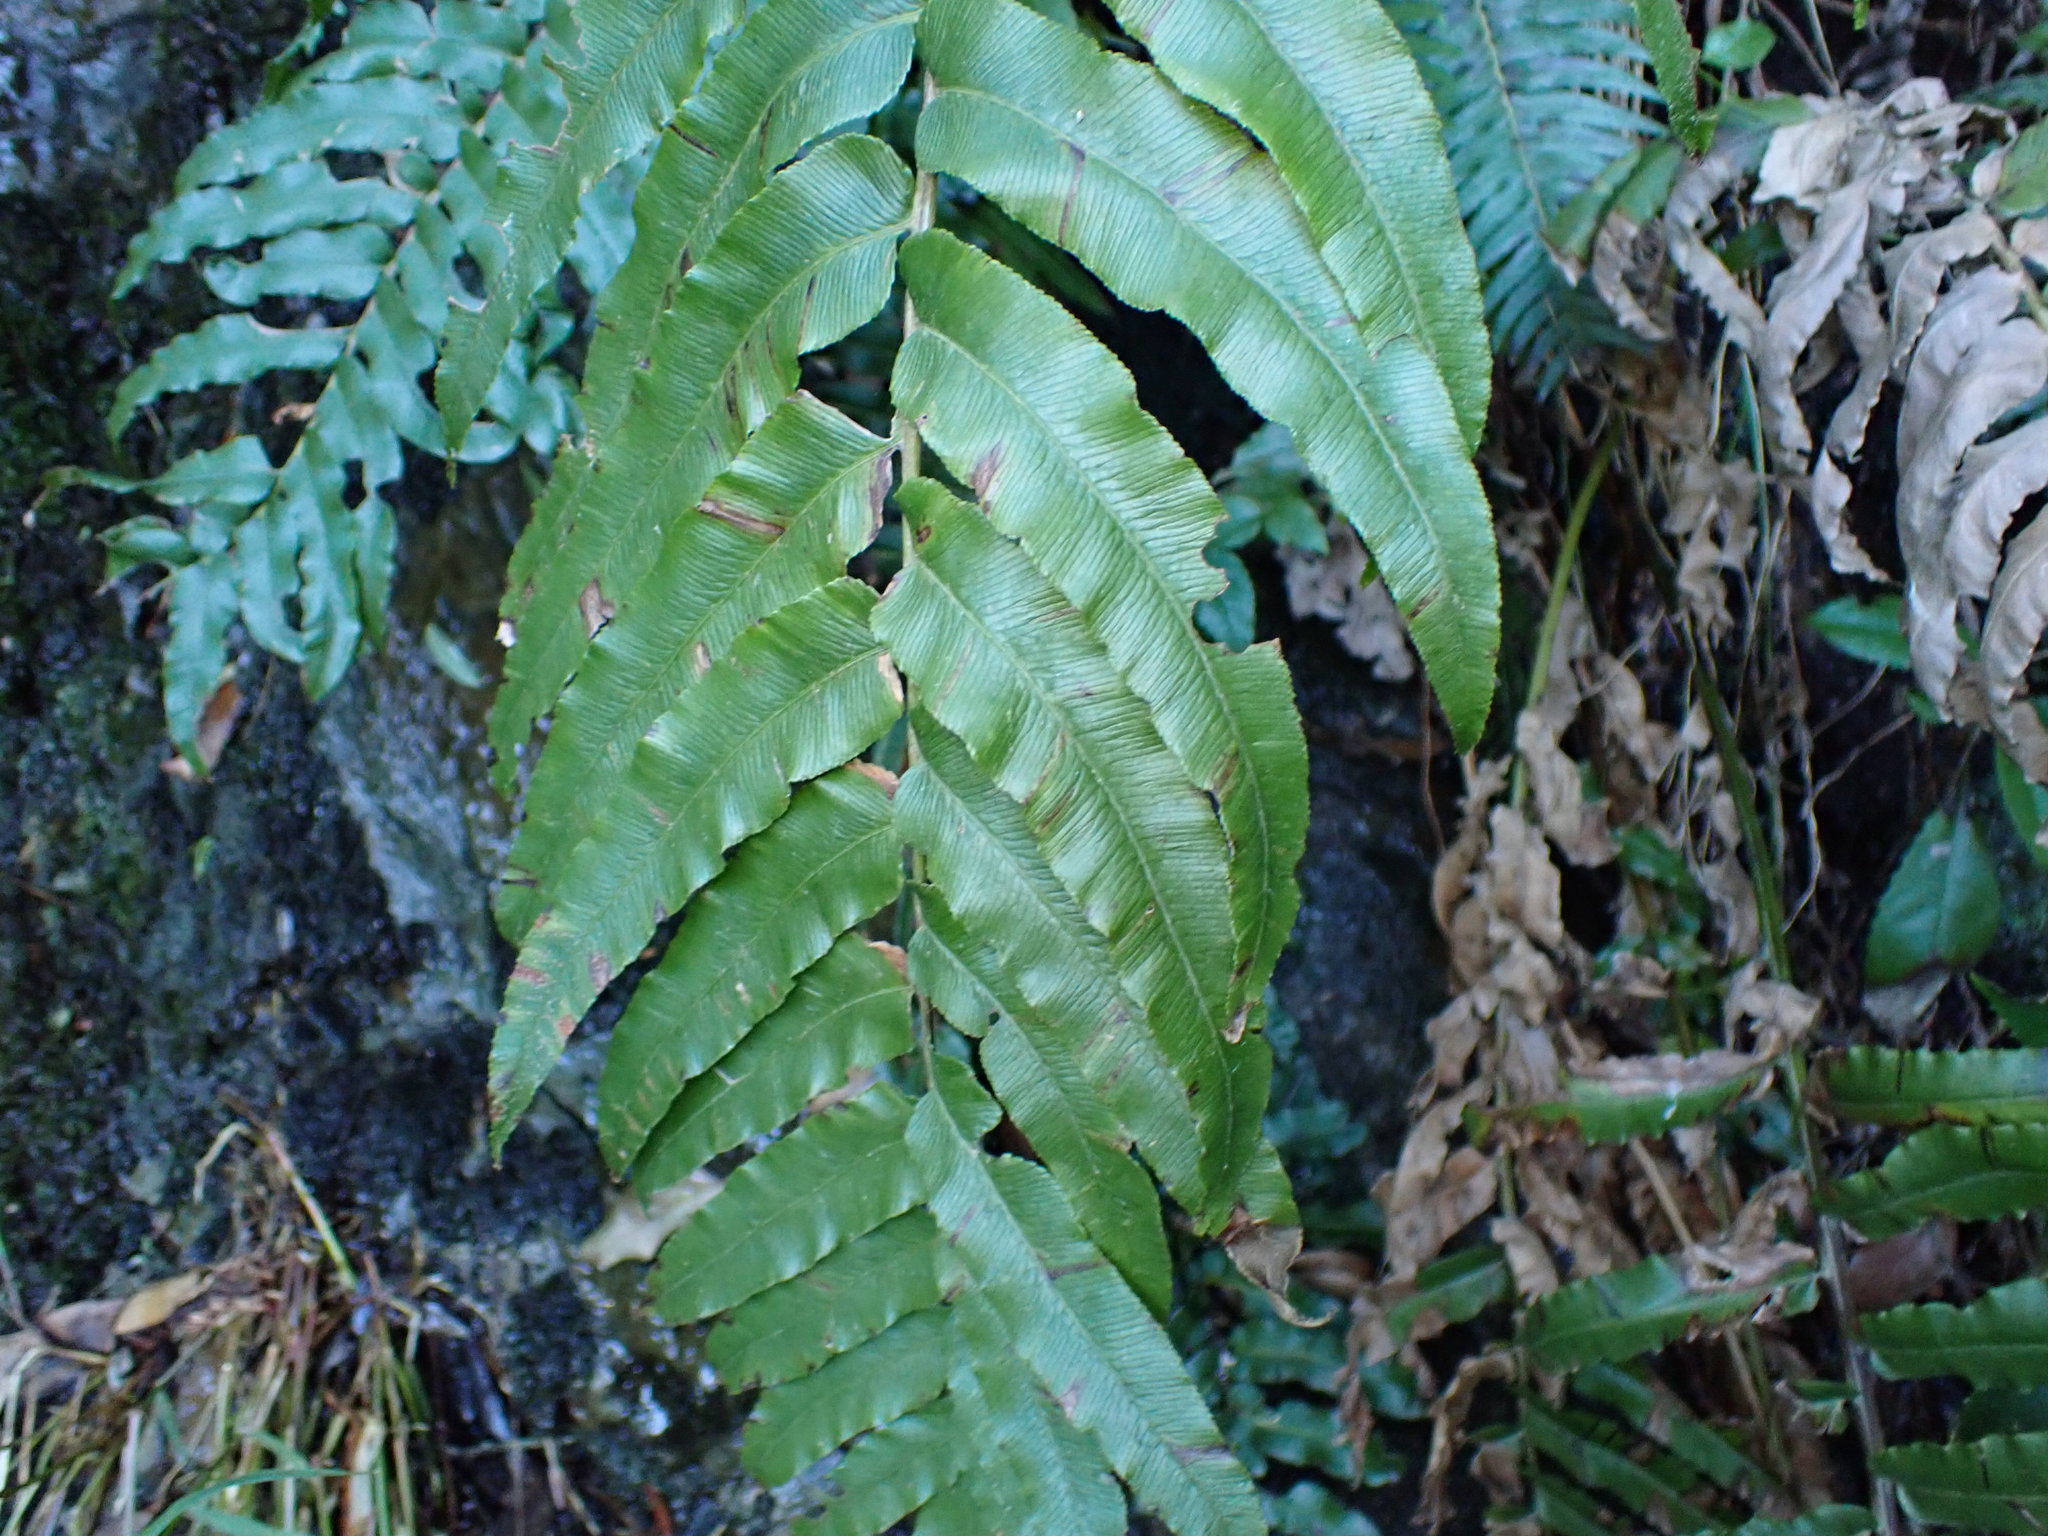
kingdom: Plantae
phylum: Tracheophyta
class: Polypodiopsida
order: Polypodiales
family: Blechnaceae
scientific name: Blechnaceae
